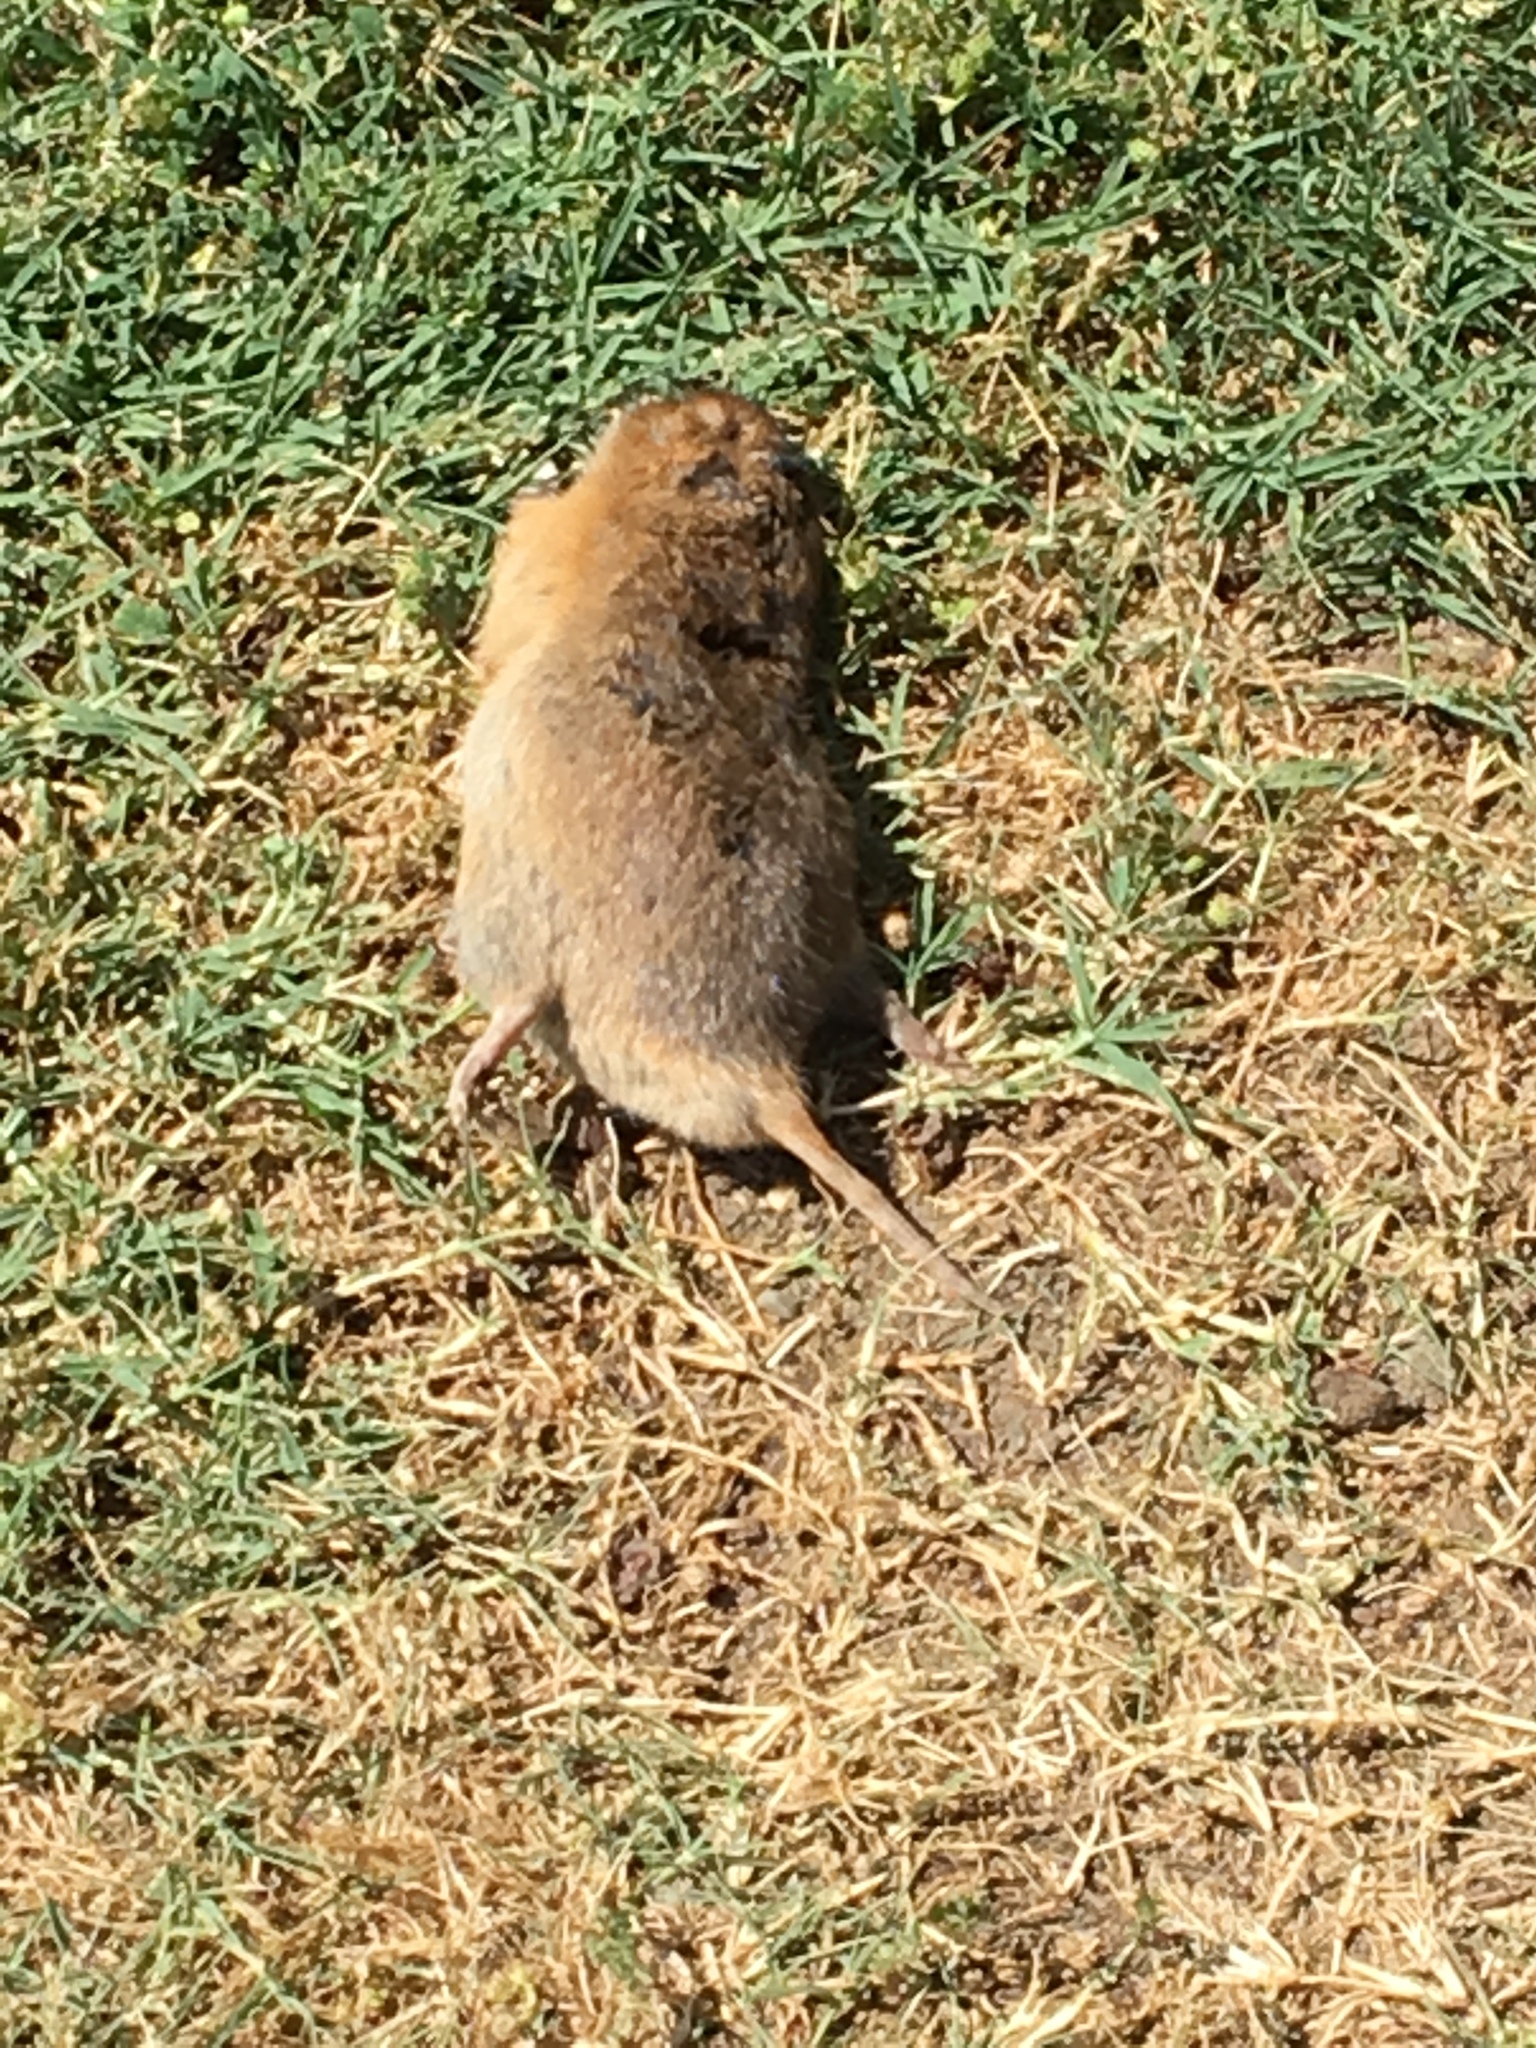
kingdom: Animalia
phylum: Chordata
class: Mammalia
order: Rodentia
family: Geomyidae
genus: Thomomys
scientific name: Thomomys bottae
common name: Botta's pocket gopher
